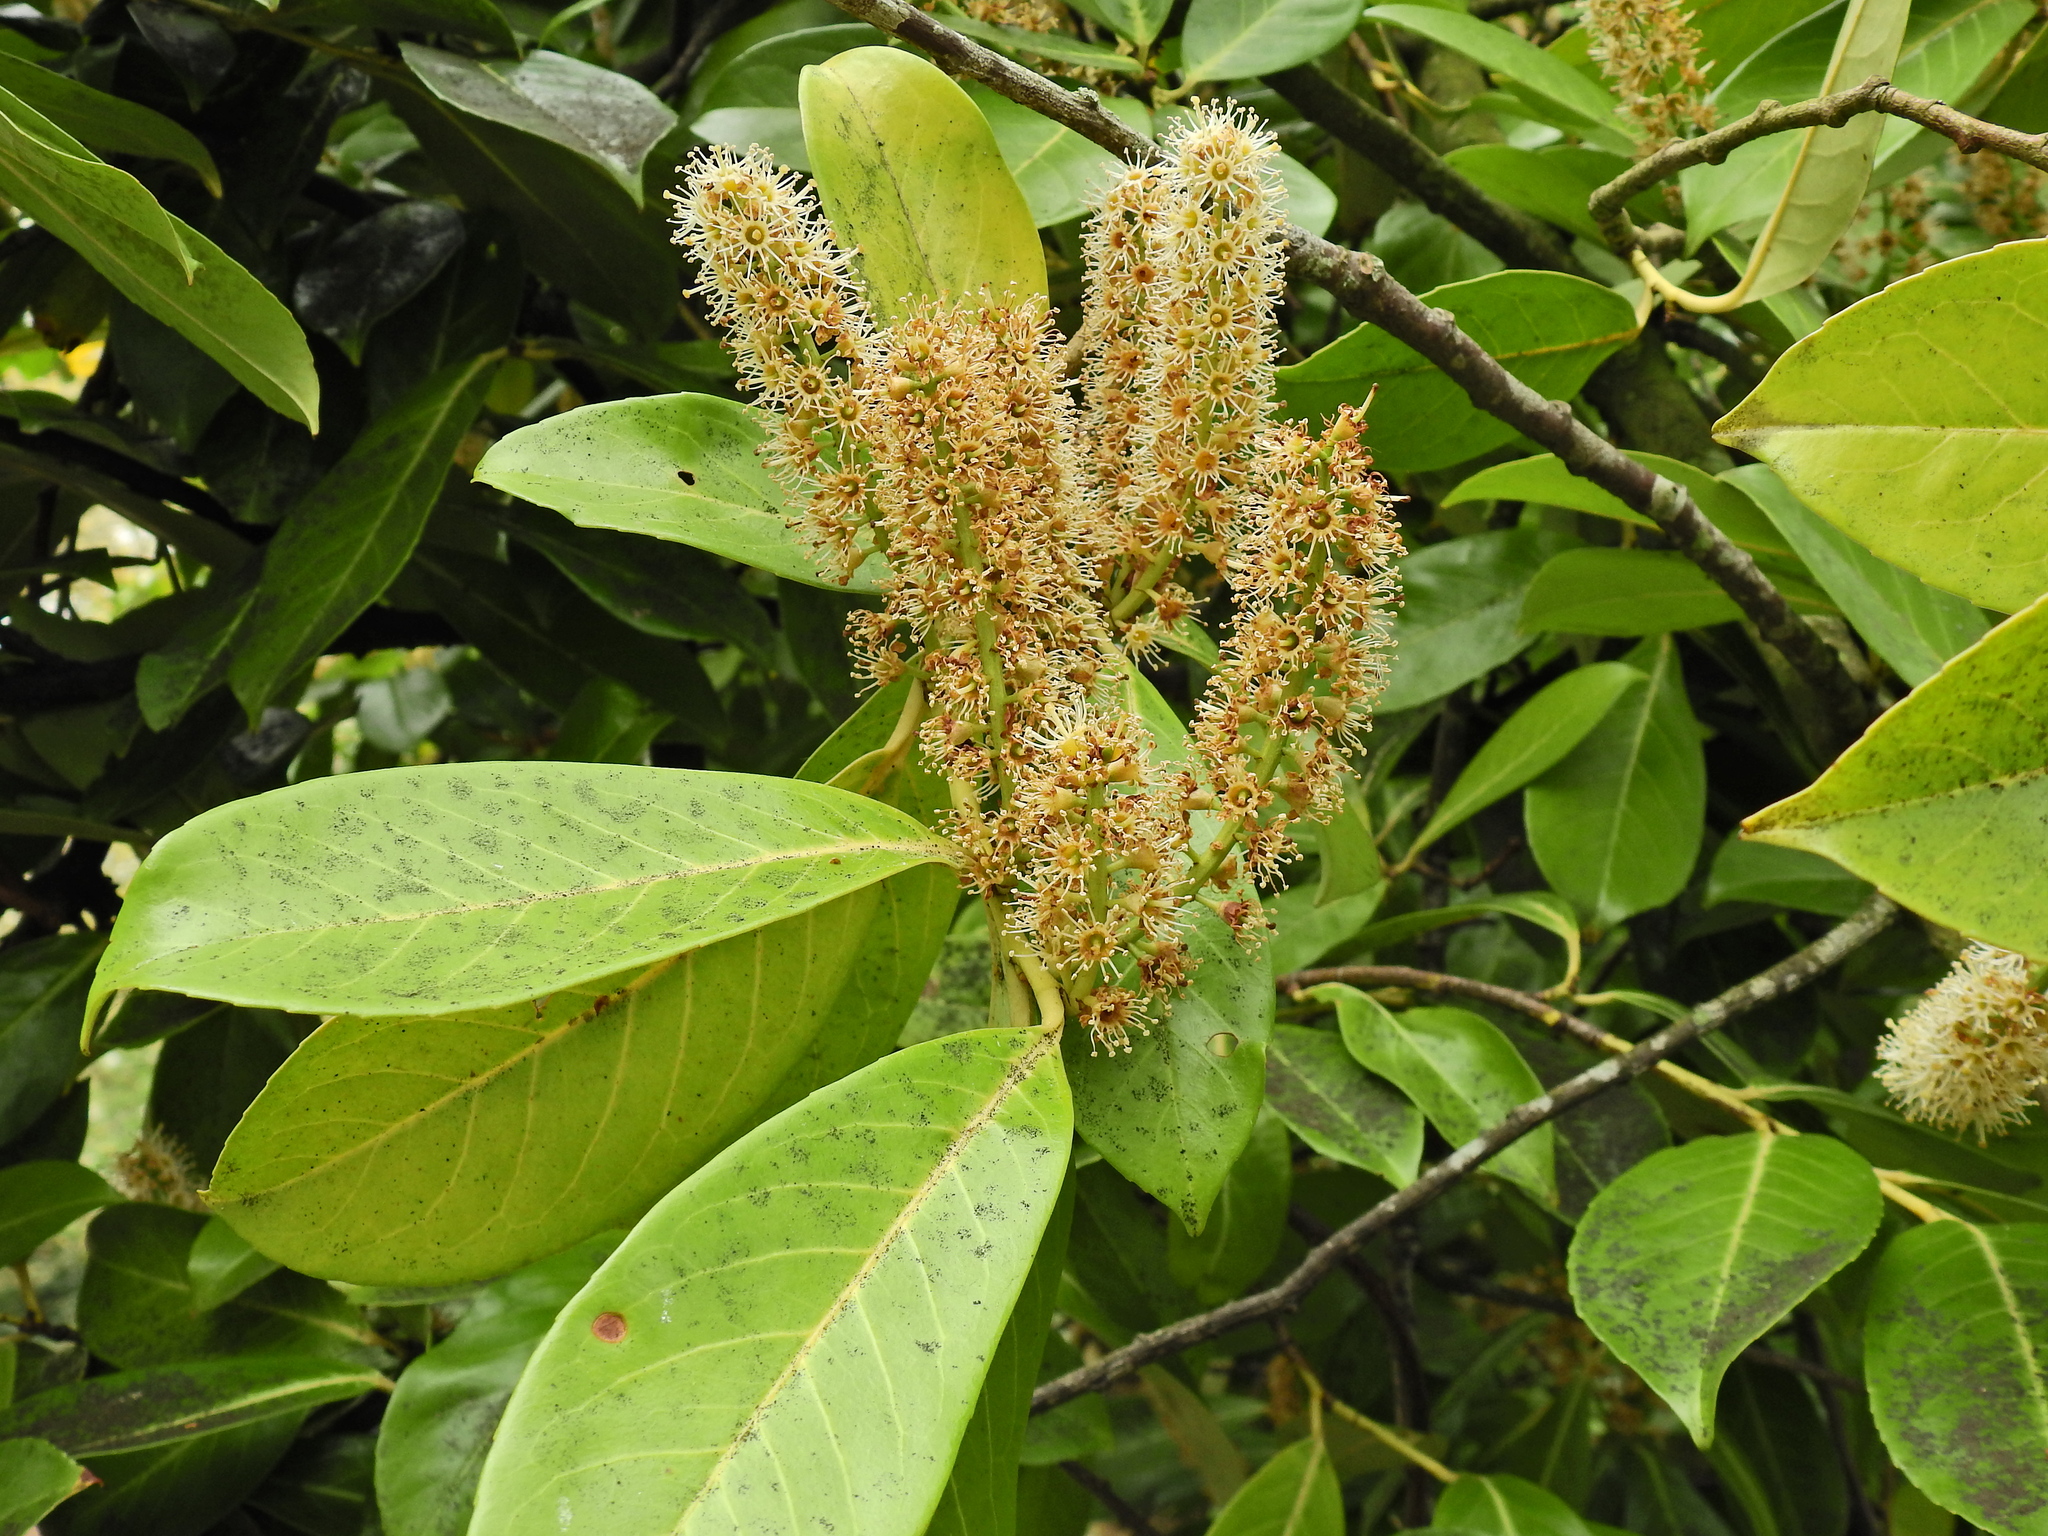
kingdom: Plantae
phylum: Tracheophyta
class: Magnoliopsida
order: Rosales
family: Rosaceae
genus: Prunus
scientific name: Prunus laurocerasus
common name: Cherry laurel
